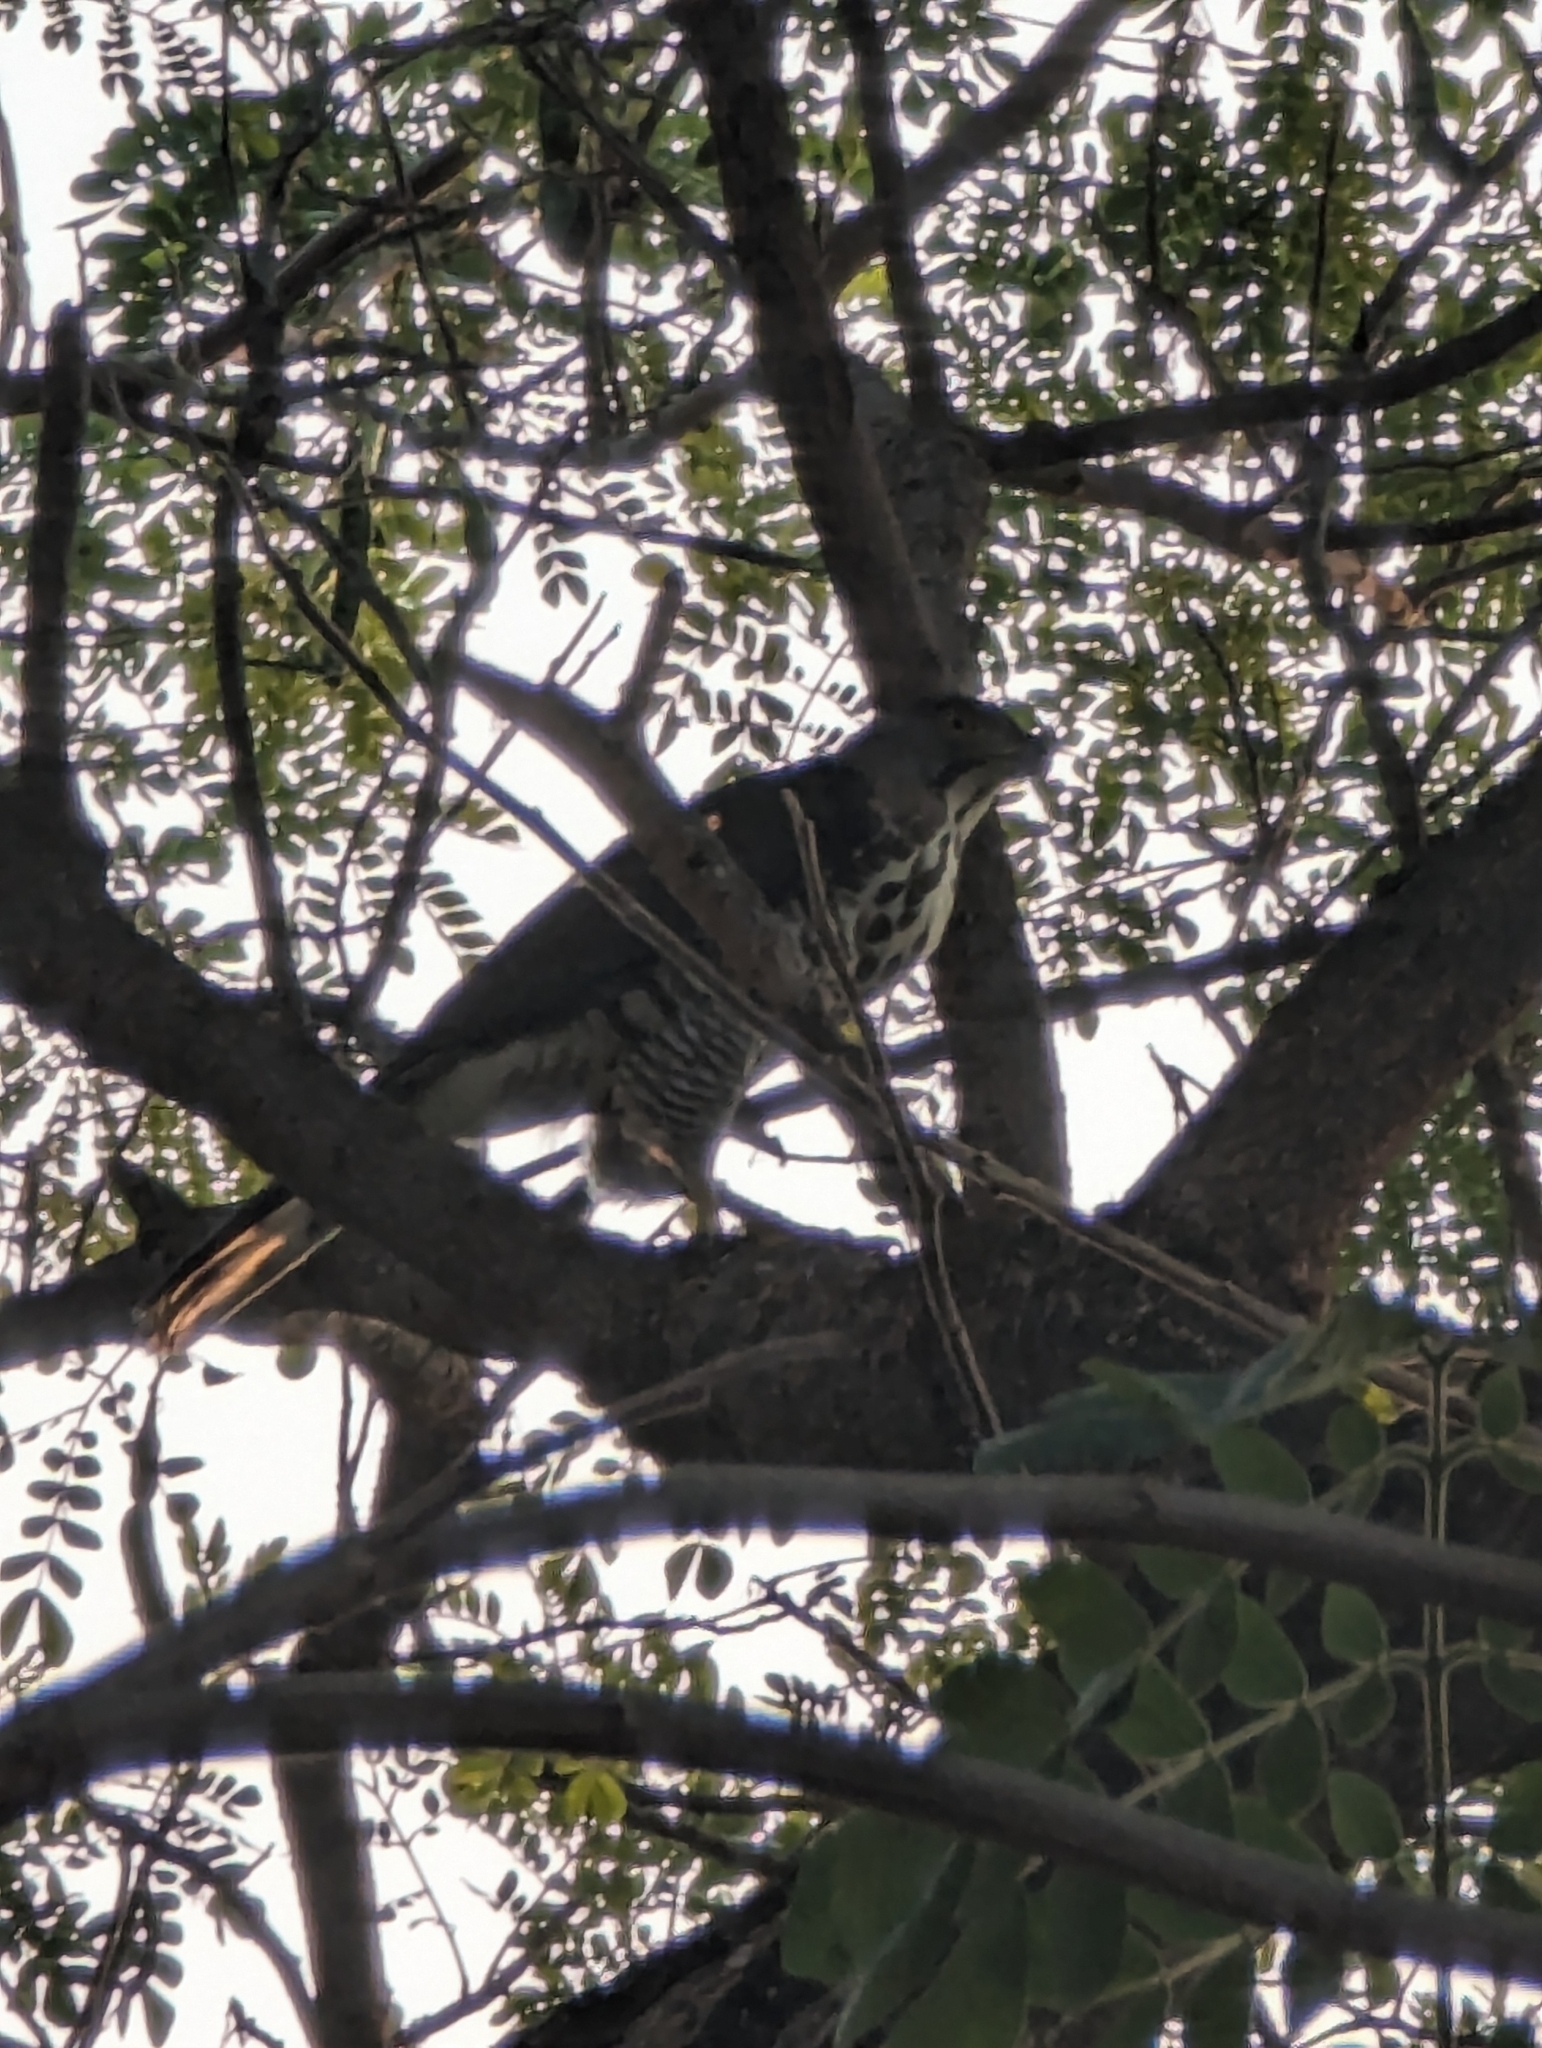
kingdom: Animalia
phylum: Chordata
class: Aves
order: Accipitriformes
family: Accipitridae
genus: Accipiter
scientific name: Accipiter trivirgatus
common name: Crested goshawk
